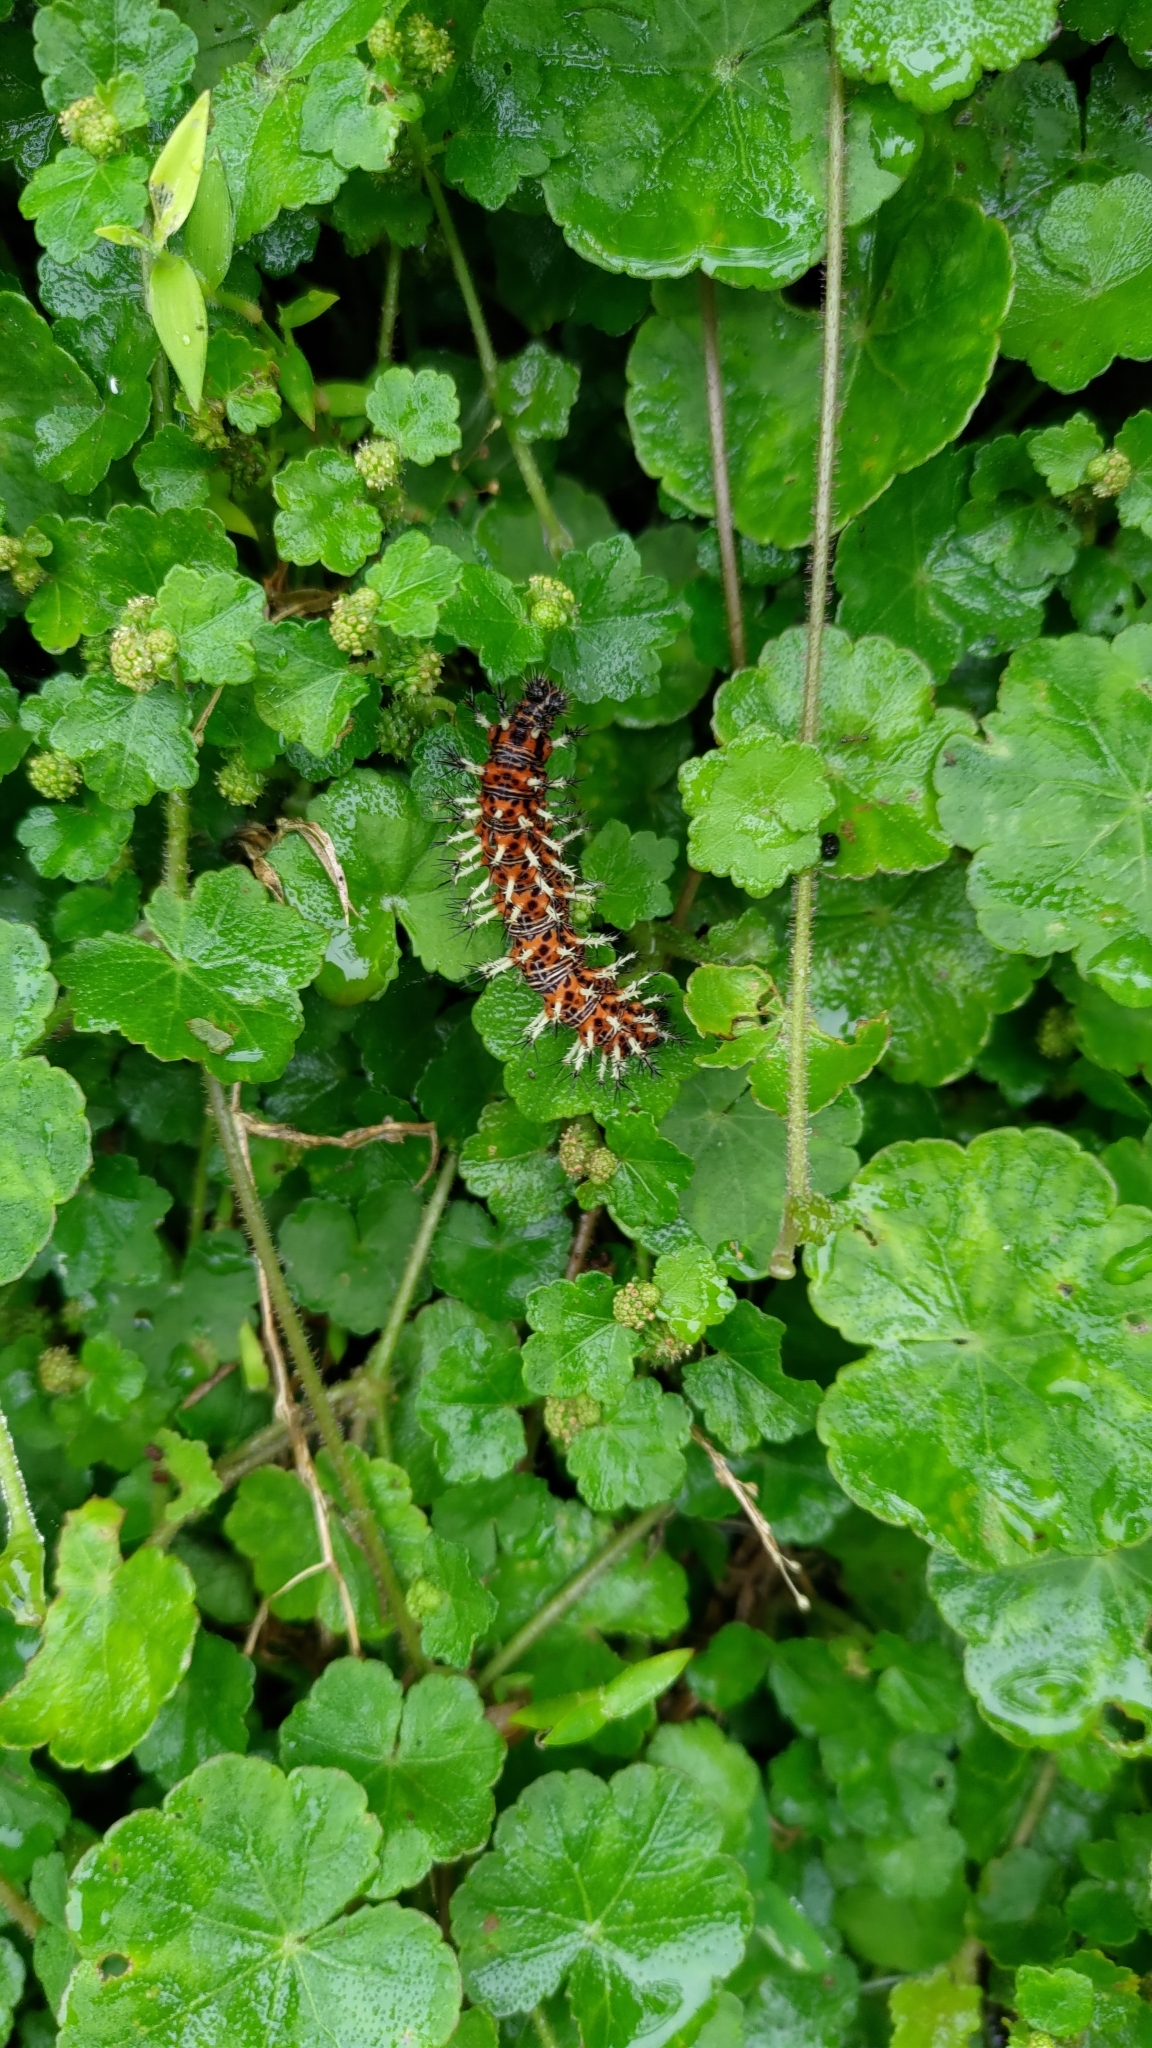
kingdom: Animalia
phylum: Arthropoda
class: Insecta
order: Lepidoptera
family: Nymphalidae
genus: Vanessa
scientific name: Vanessa Kaniska canace
